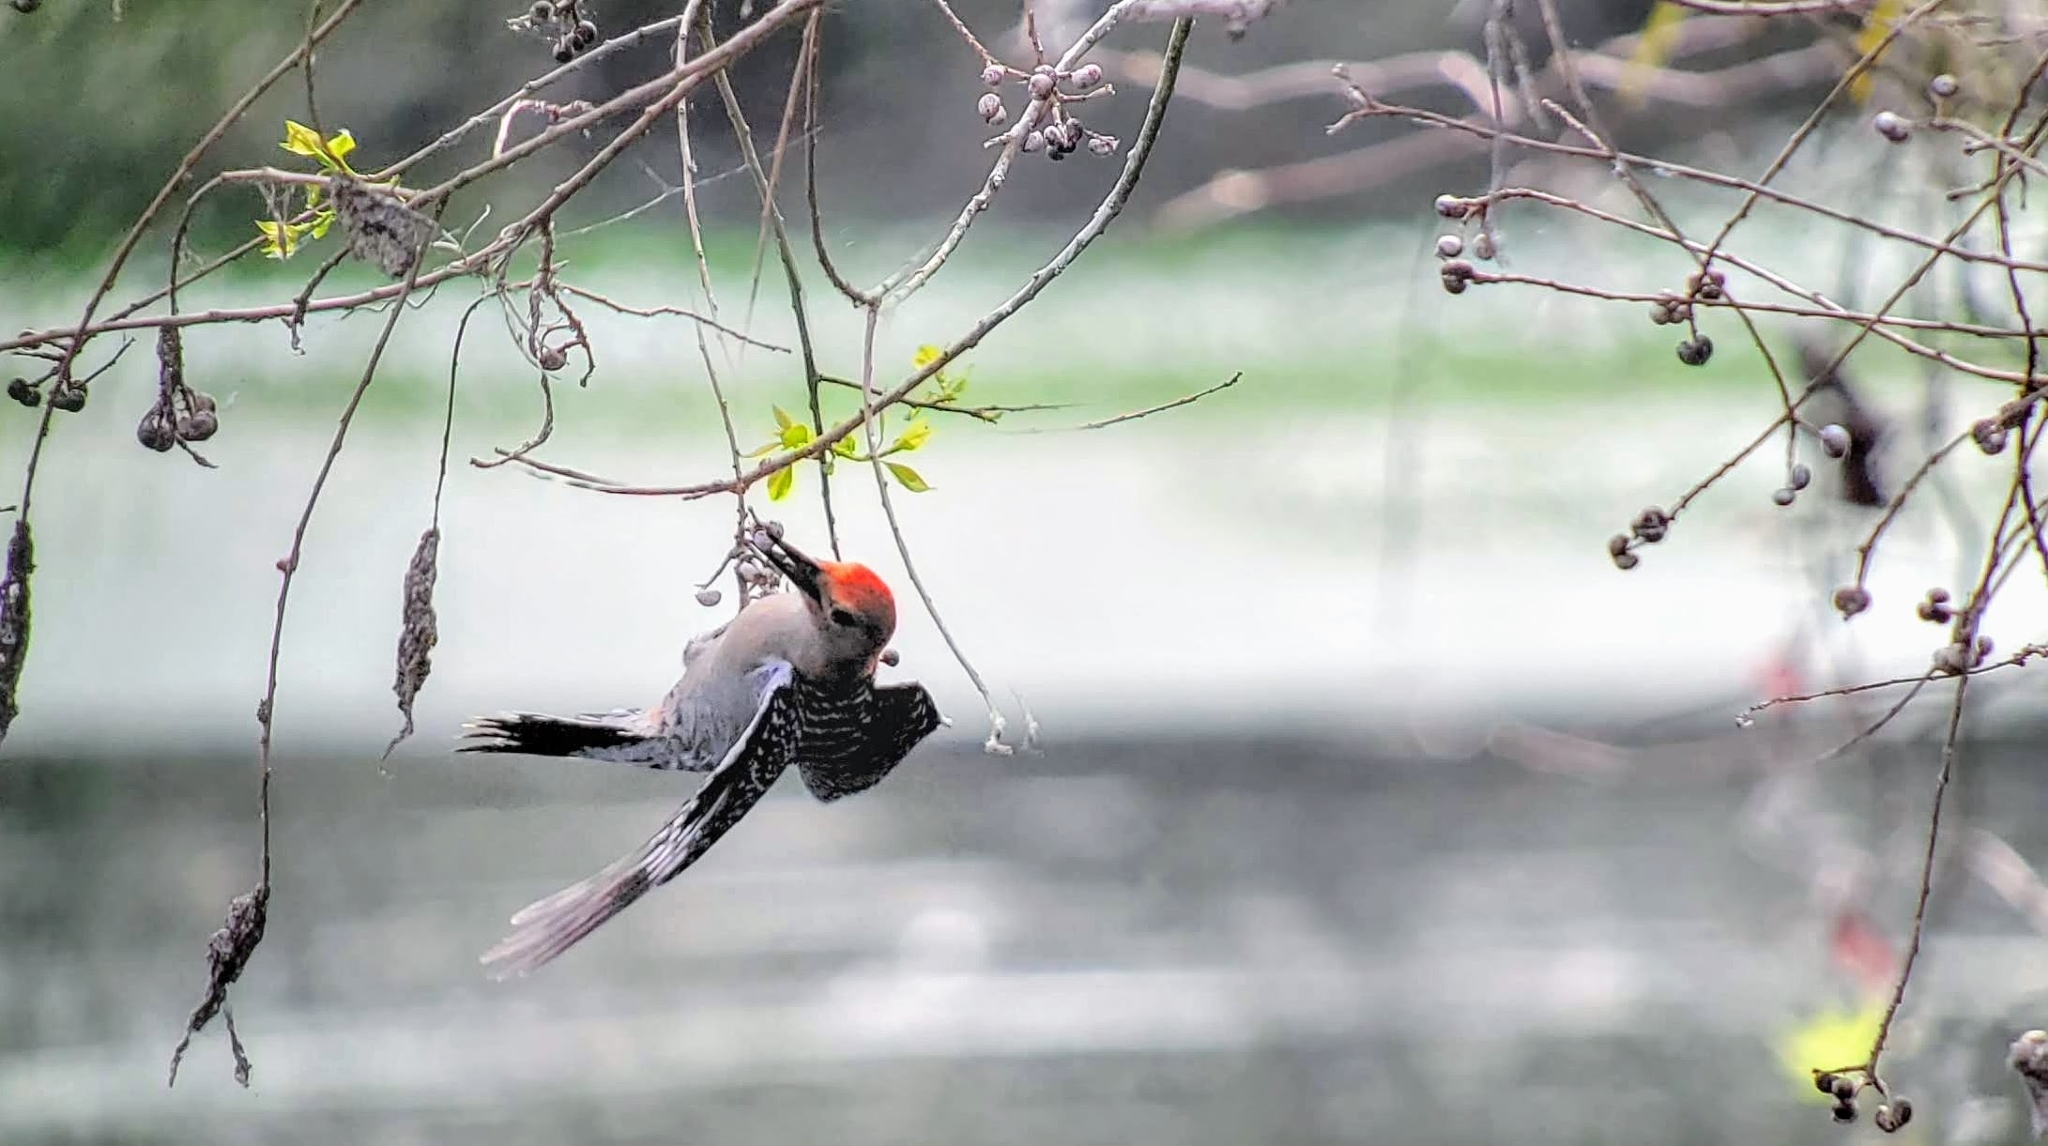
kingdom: Animalia
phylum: Chordata
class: Aves
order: Piciformes
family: Picidae
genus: Melanerpes
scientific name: Melanerpes carolinus
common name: Red-bellied woodpecker
